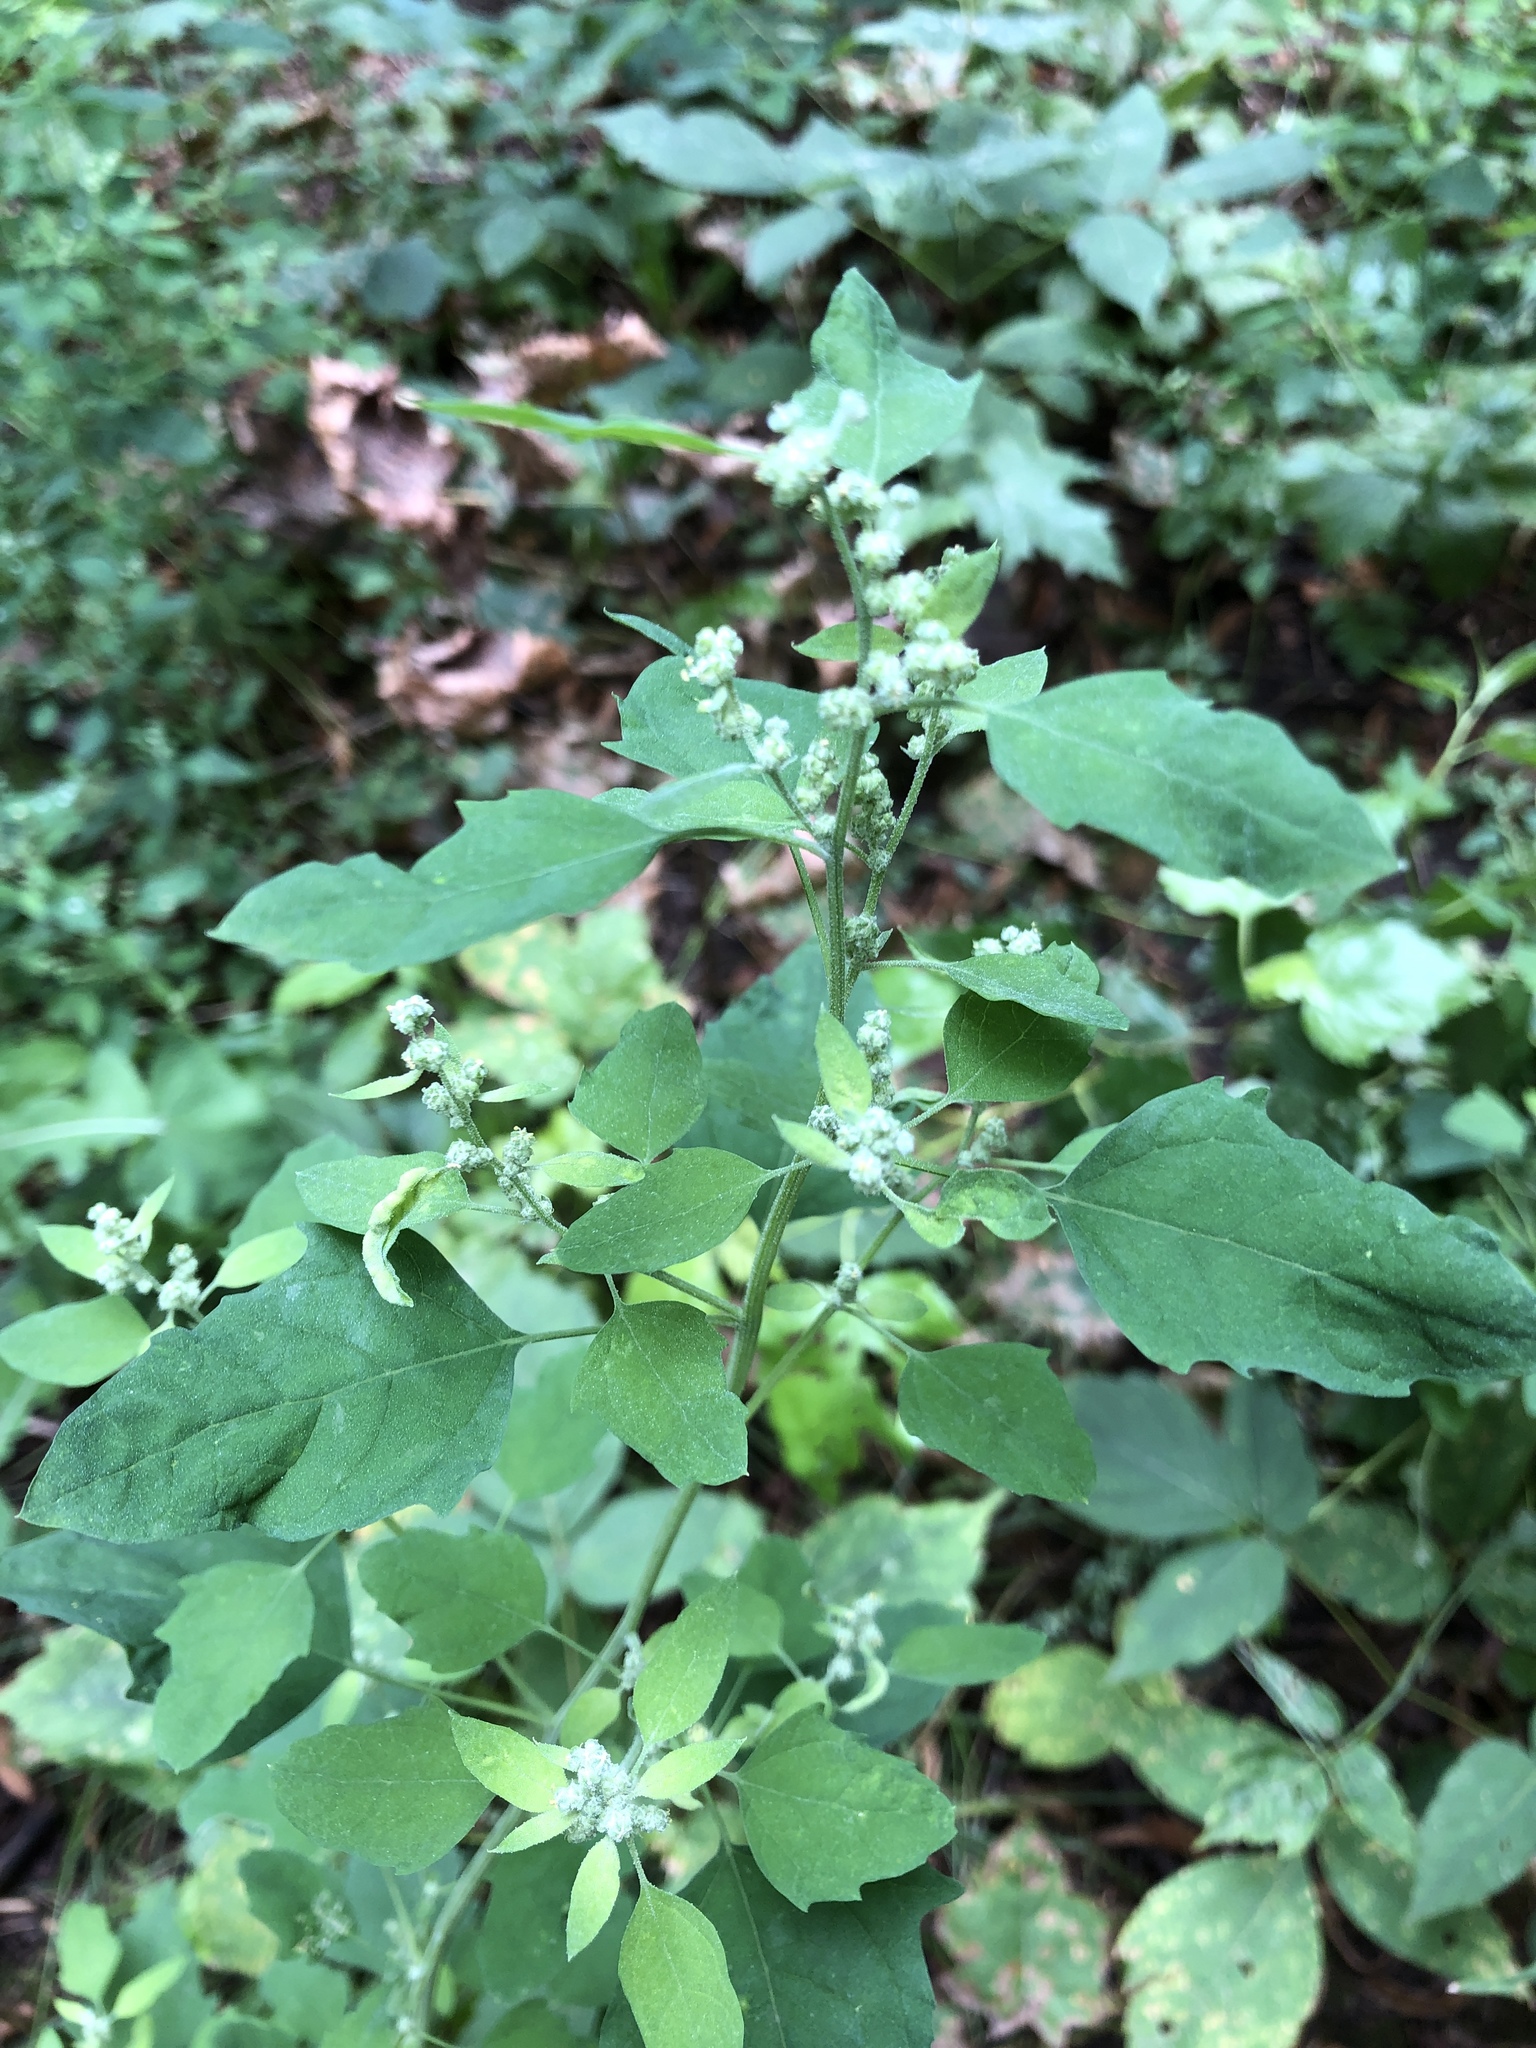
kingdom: Plantae
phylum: Tracheophyta
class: Magnoliopsida
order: Caryophyllales
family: Amaranthaceae
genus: Chenopodium
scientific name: Chenopodium album
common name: Fat-hen
